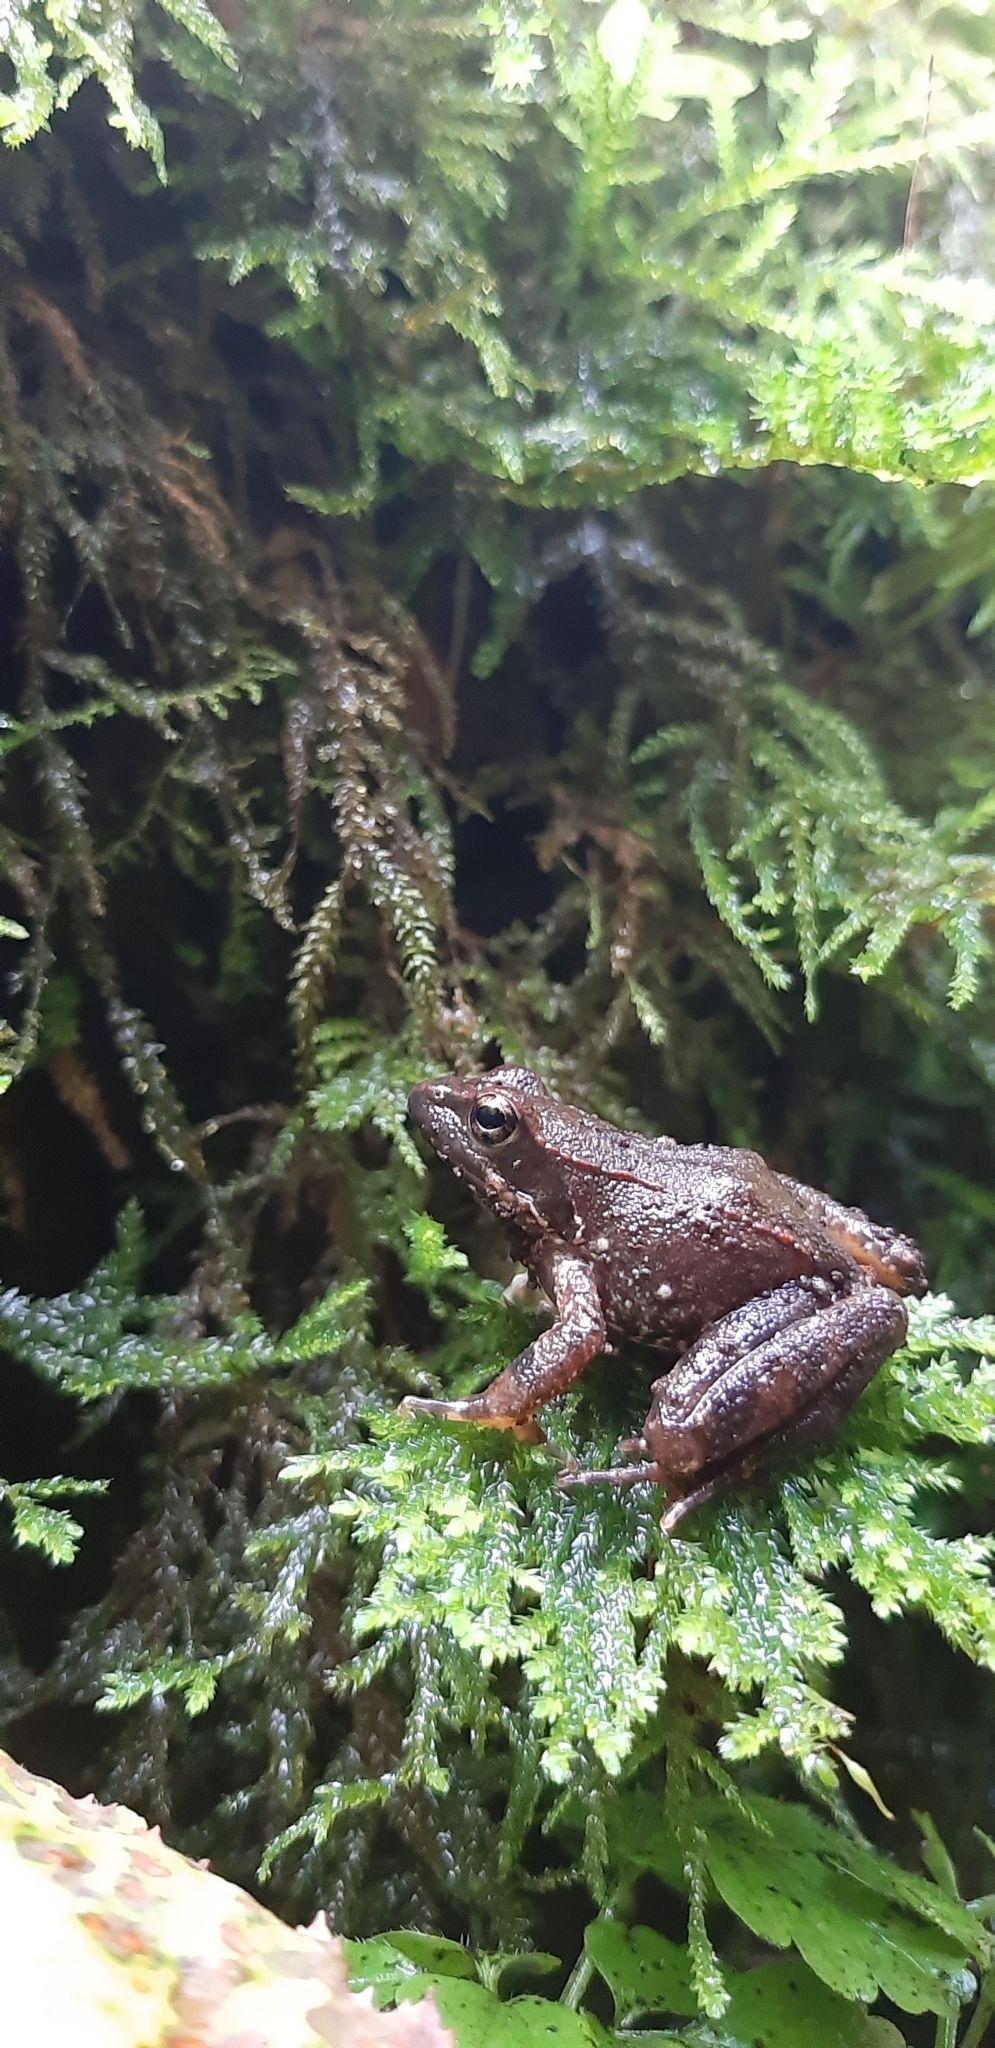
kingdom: Animalia
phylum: Chordata
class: Amphibia
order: Anura
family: Ranidae
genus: Rana
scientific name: Rana italica
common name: Italian stream frog
